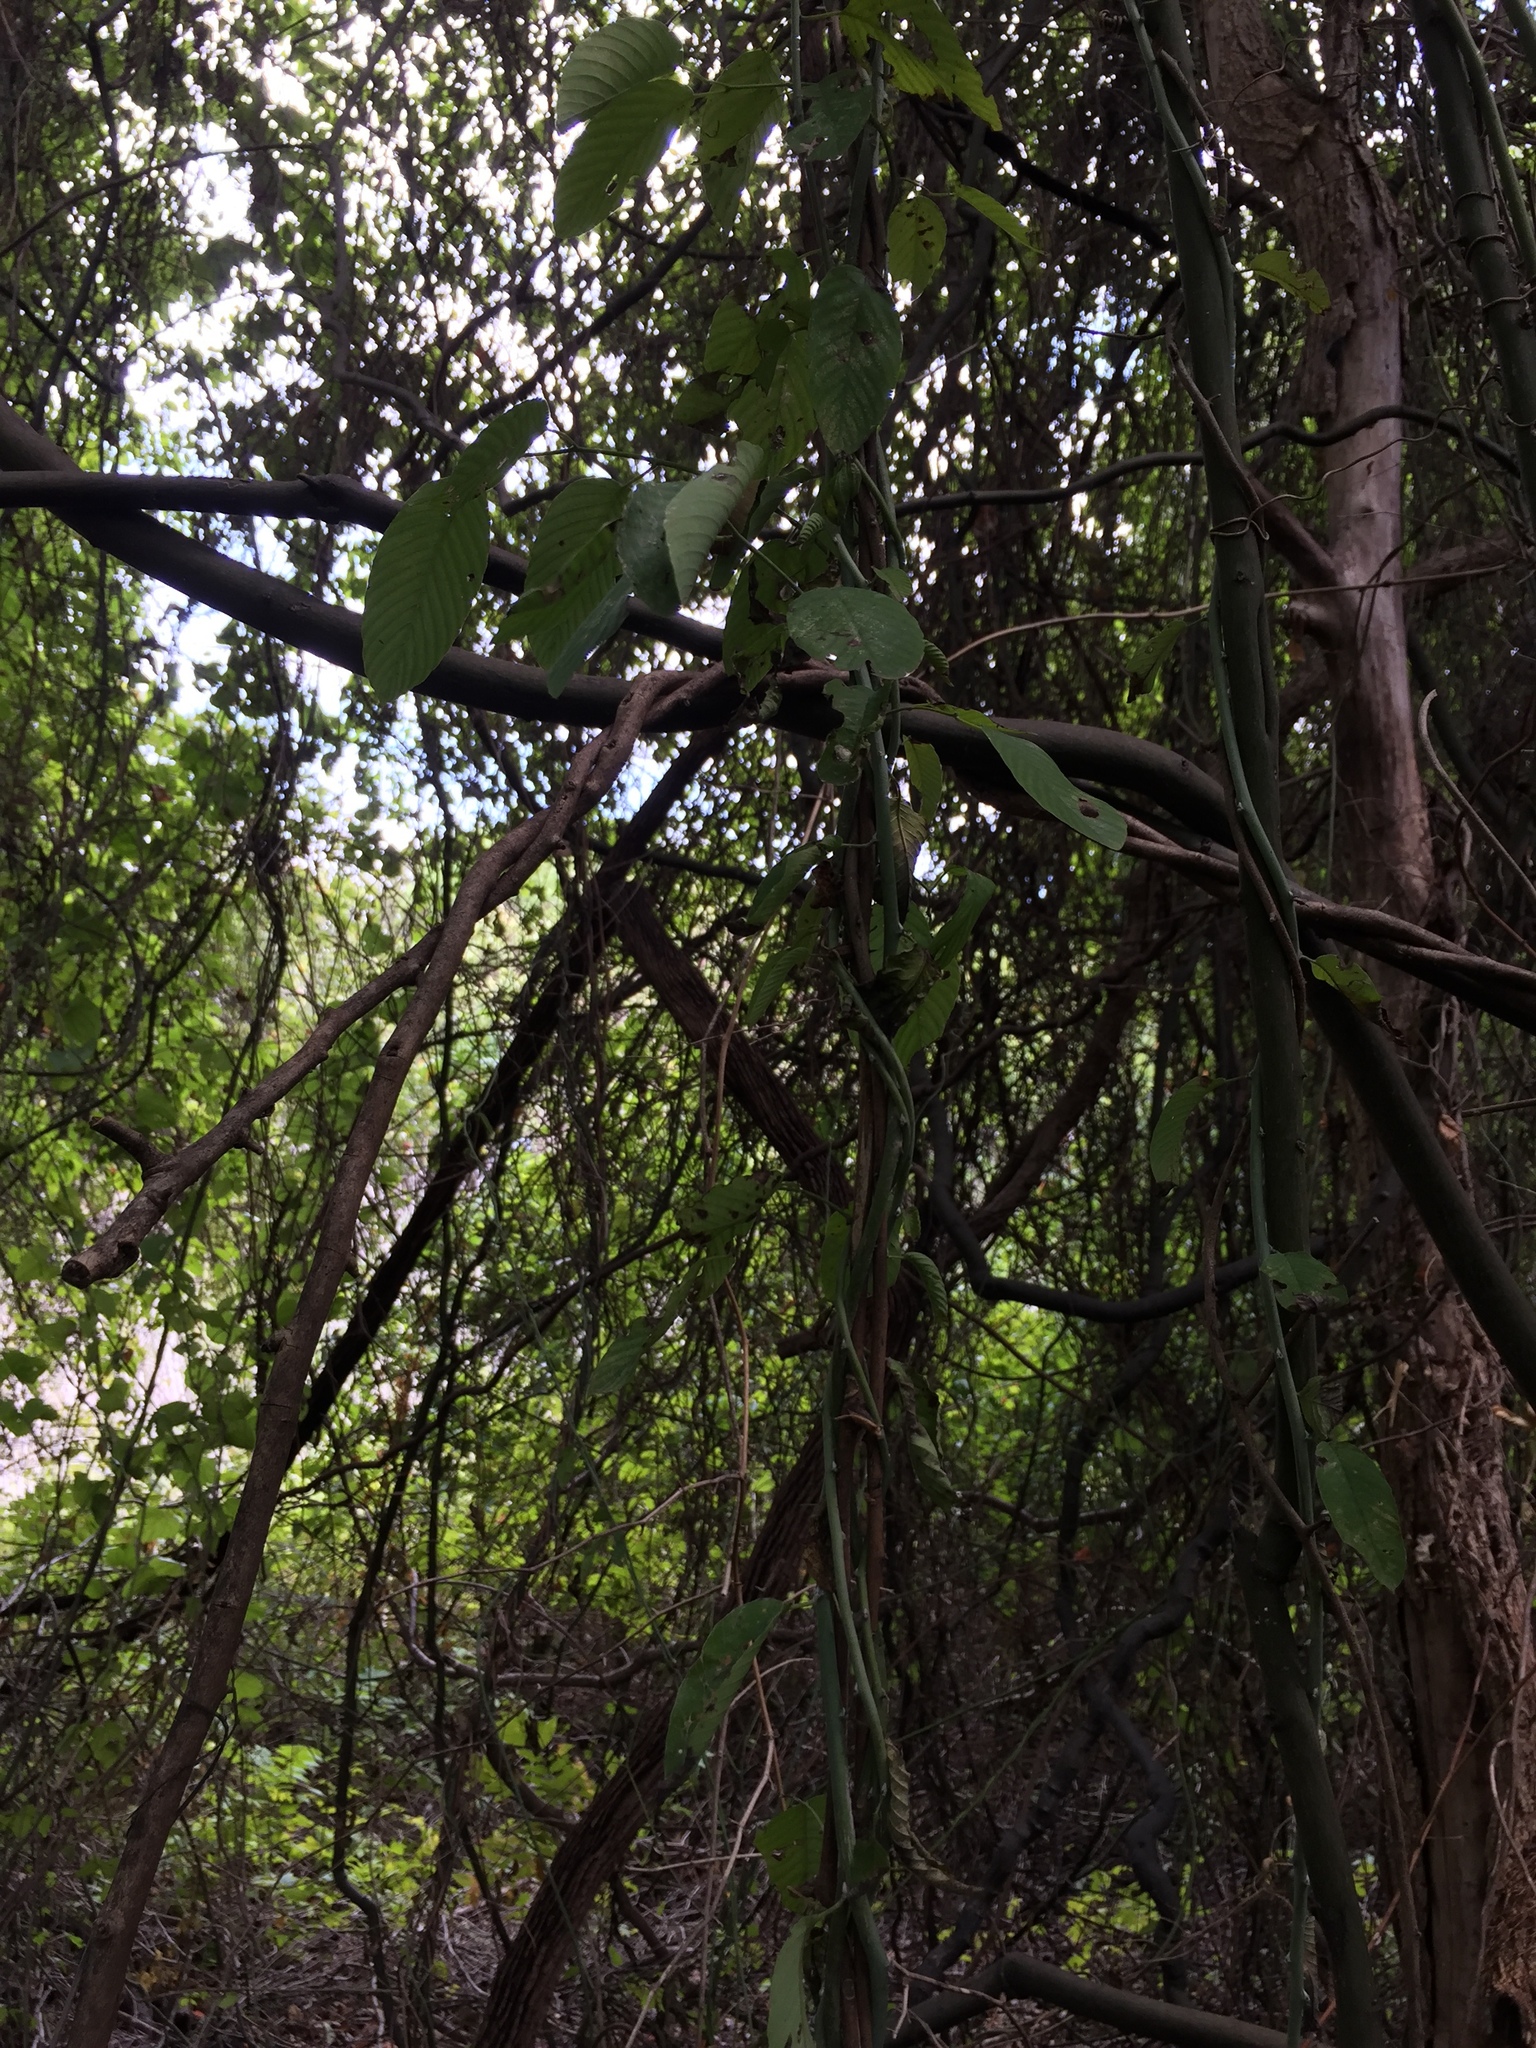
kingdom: Plantae
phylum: Tracheophyta
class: Magnoliopsida
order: Rosales
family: Rhamnaceae
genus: Berchemia
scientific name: Berchemia scandens
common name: Supplejack
